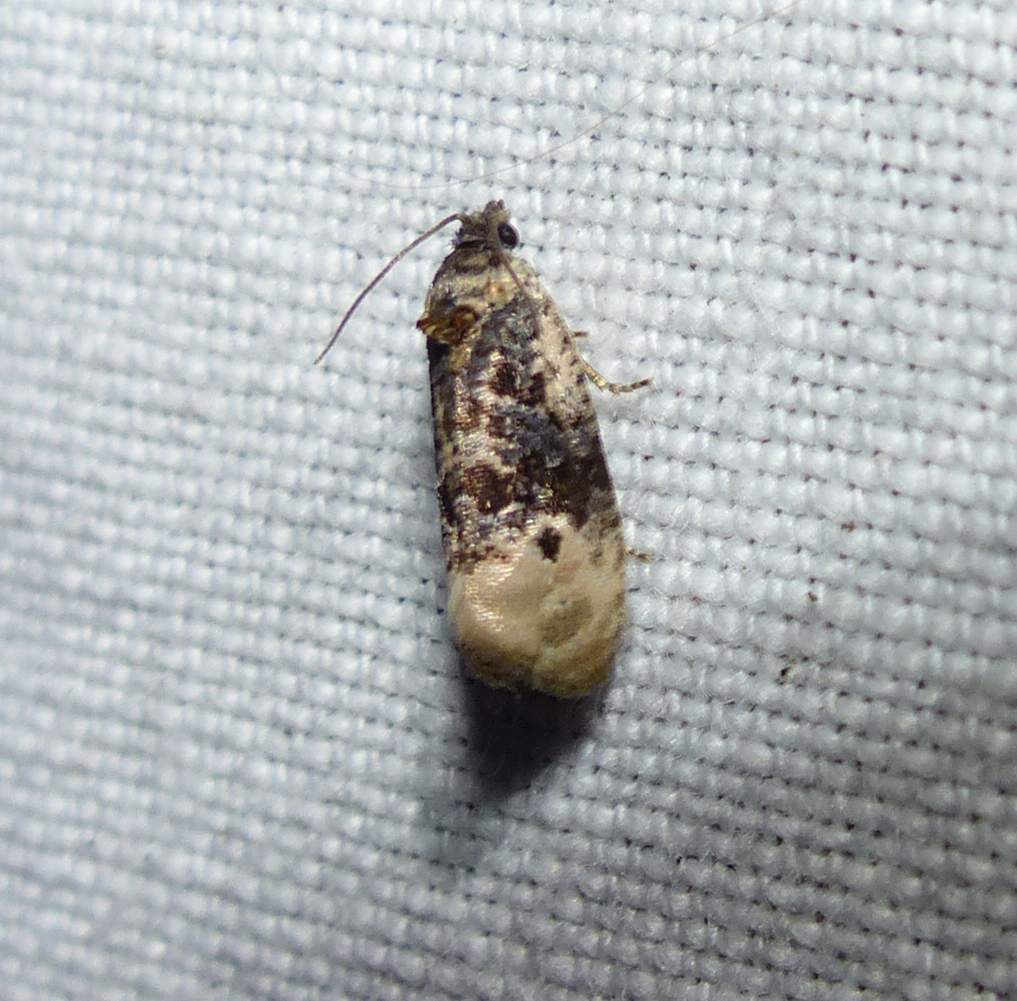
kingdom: Animalia
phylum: Arthropoda
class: Insecta
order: Lepidoptera
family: Tortricidae
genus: Hedya
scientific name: Hedya separatana
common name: Pink-washed leafroller moth
